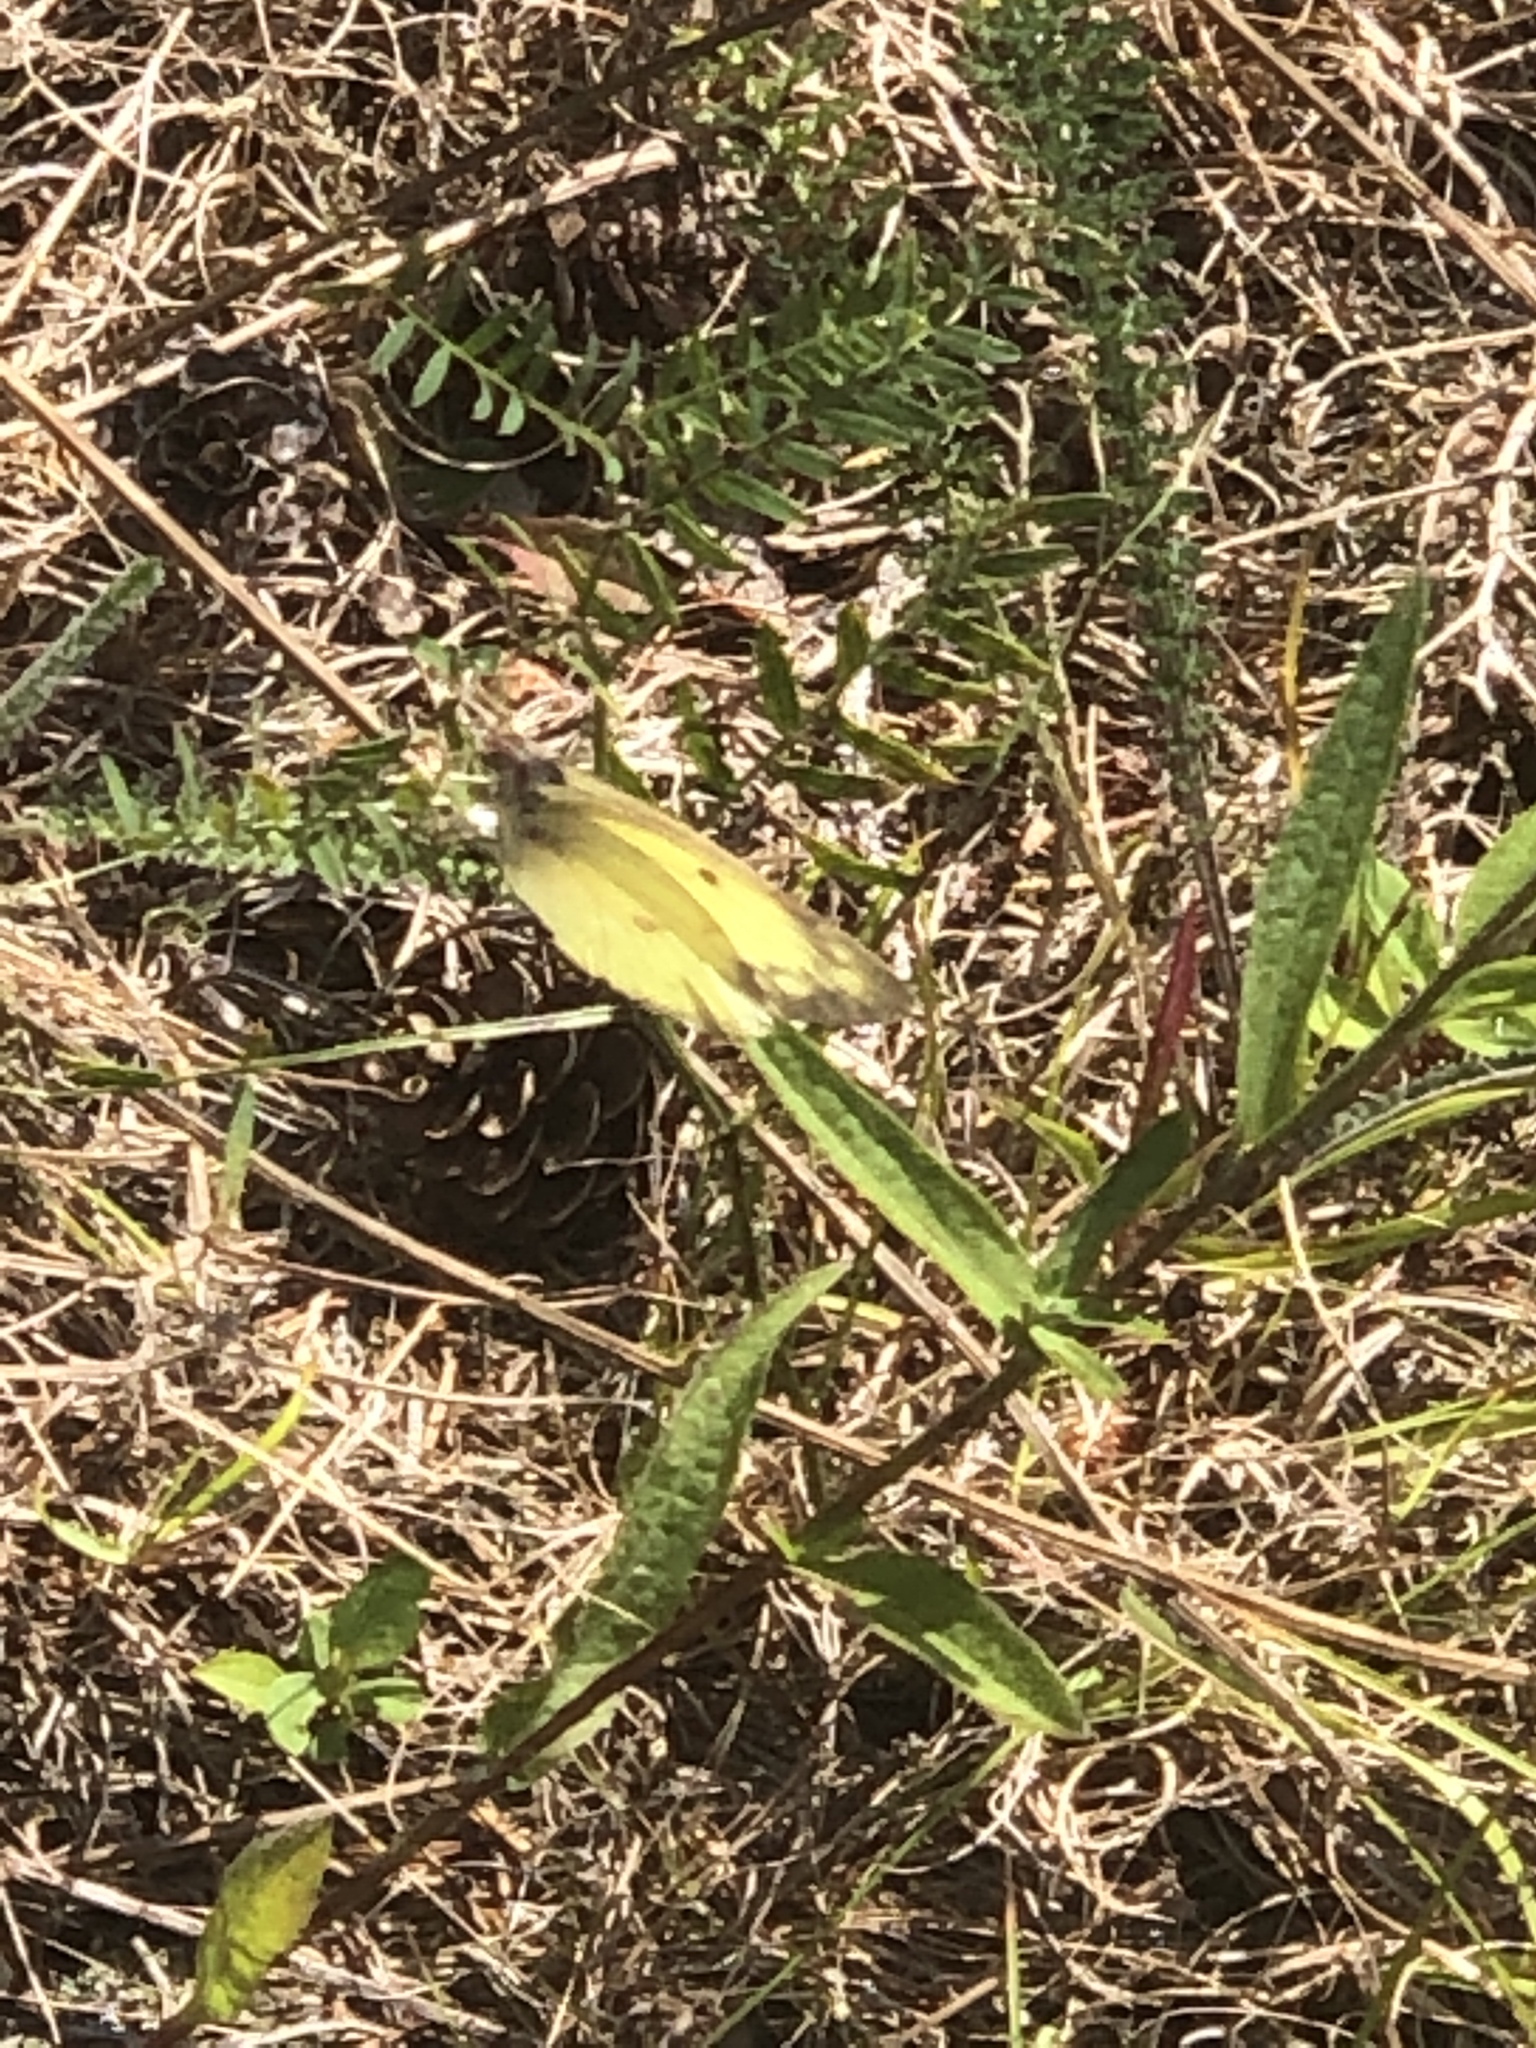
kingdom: Animalia
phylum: Arthropoda
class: Insecta
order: Lepidoptera
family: Pieridae
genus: Colias
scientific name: Colias philodice
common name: Clouded sulphur
